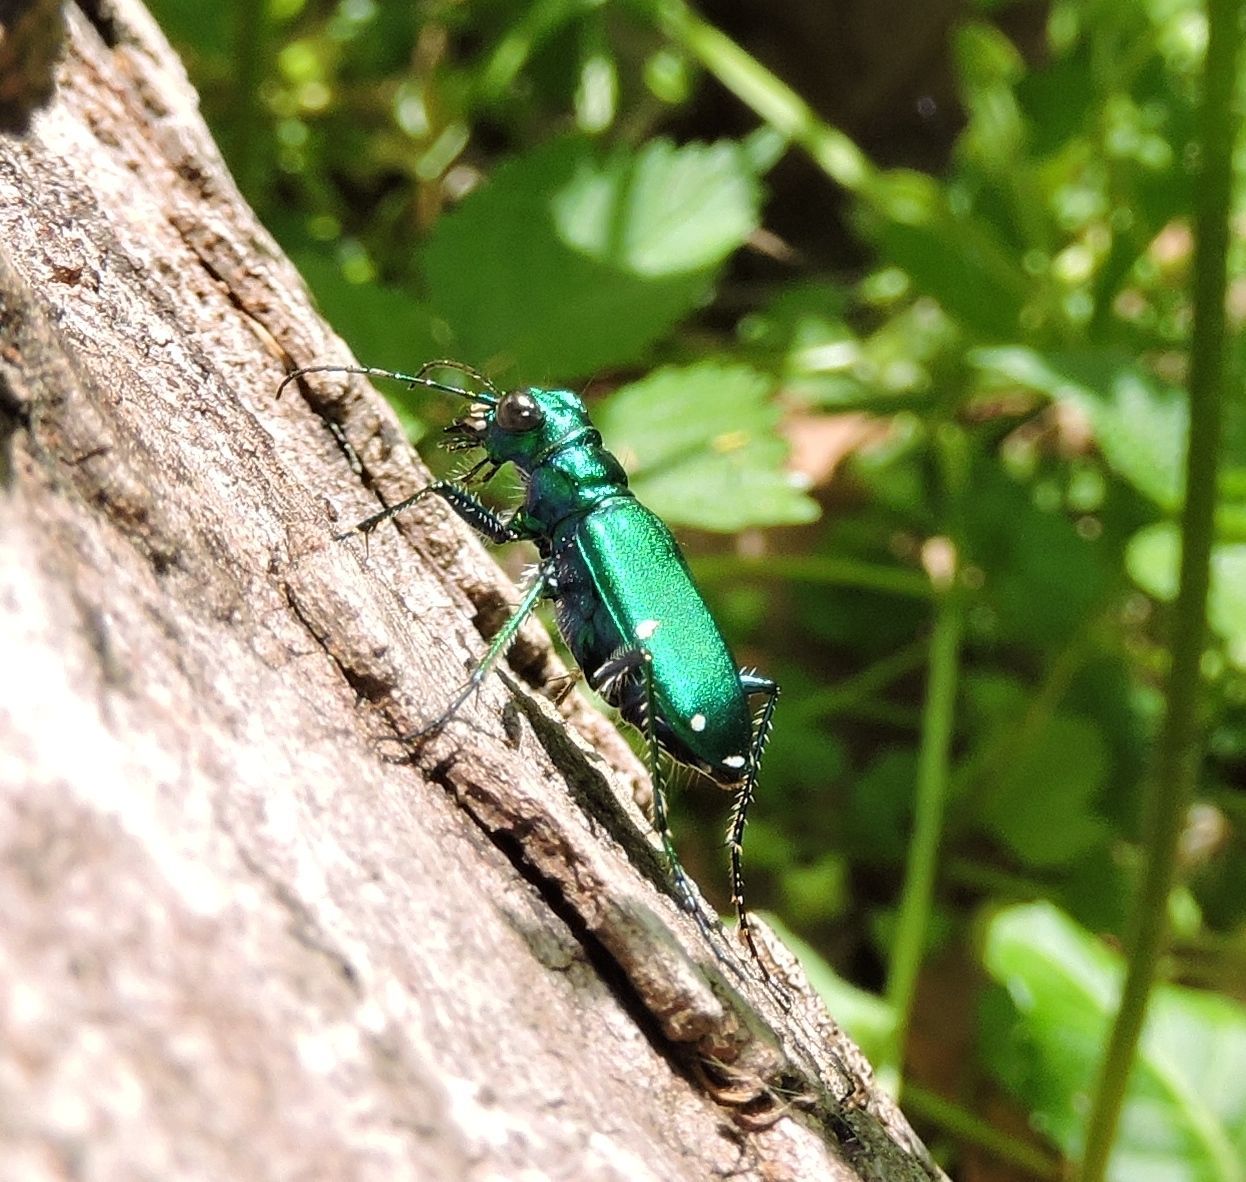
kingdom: Animalia
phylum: Arthropoda
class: Insecta
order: Coleoptera
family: Carabidae
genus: Cicindela
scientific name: Cicindela sexguttata
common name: Six-spotted tiger beetle
